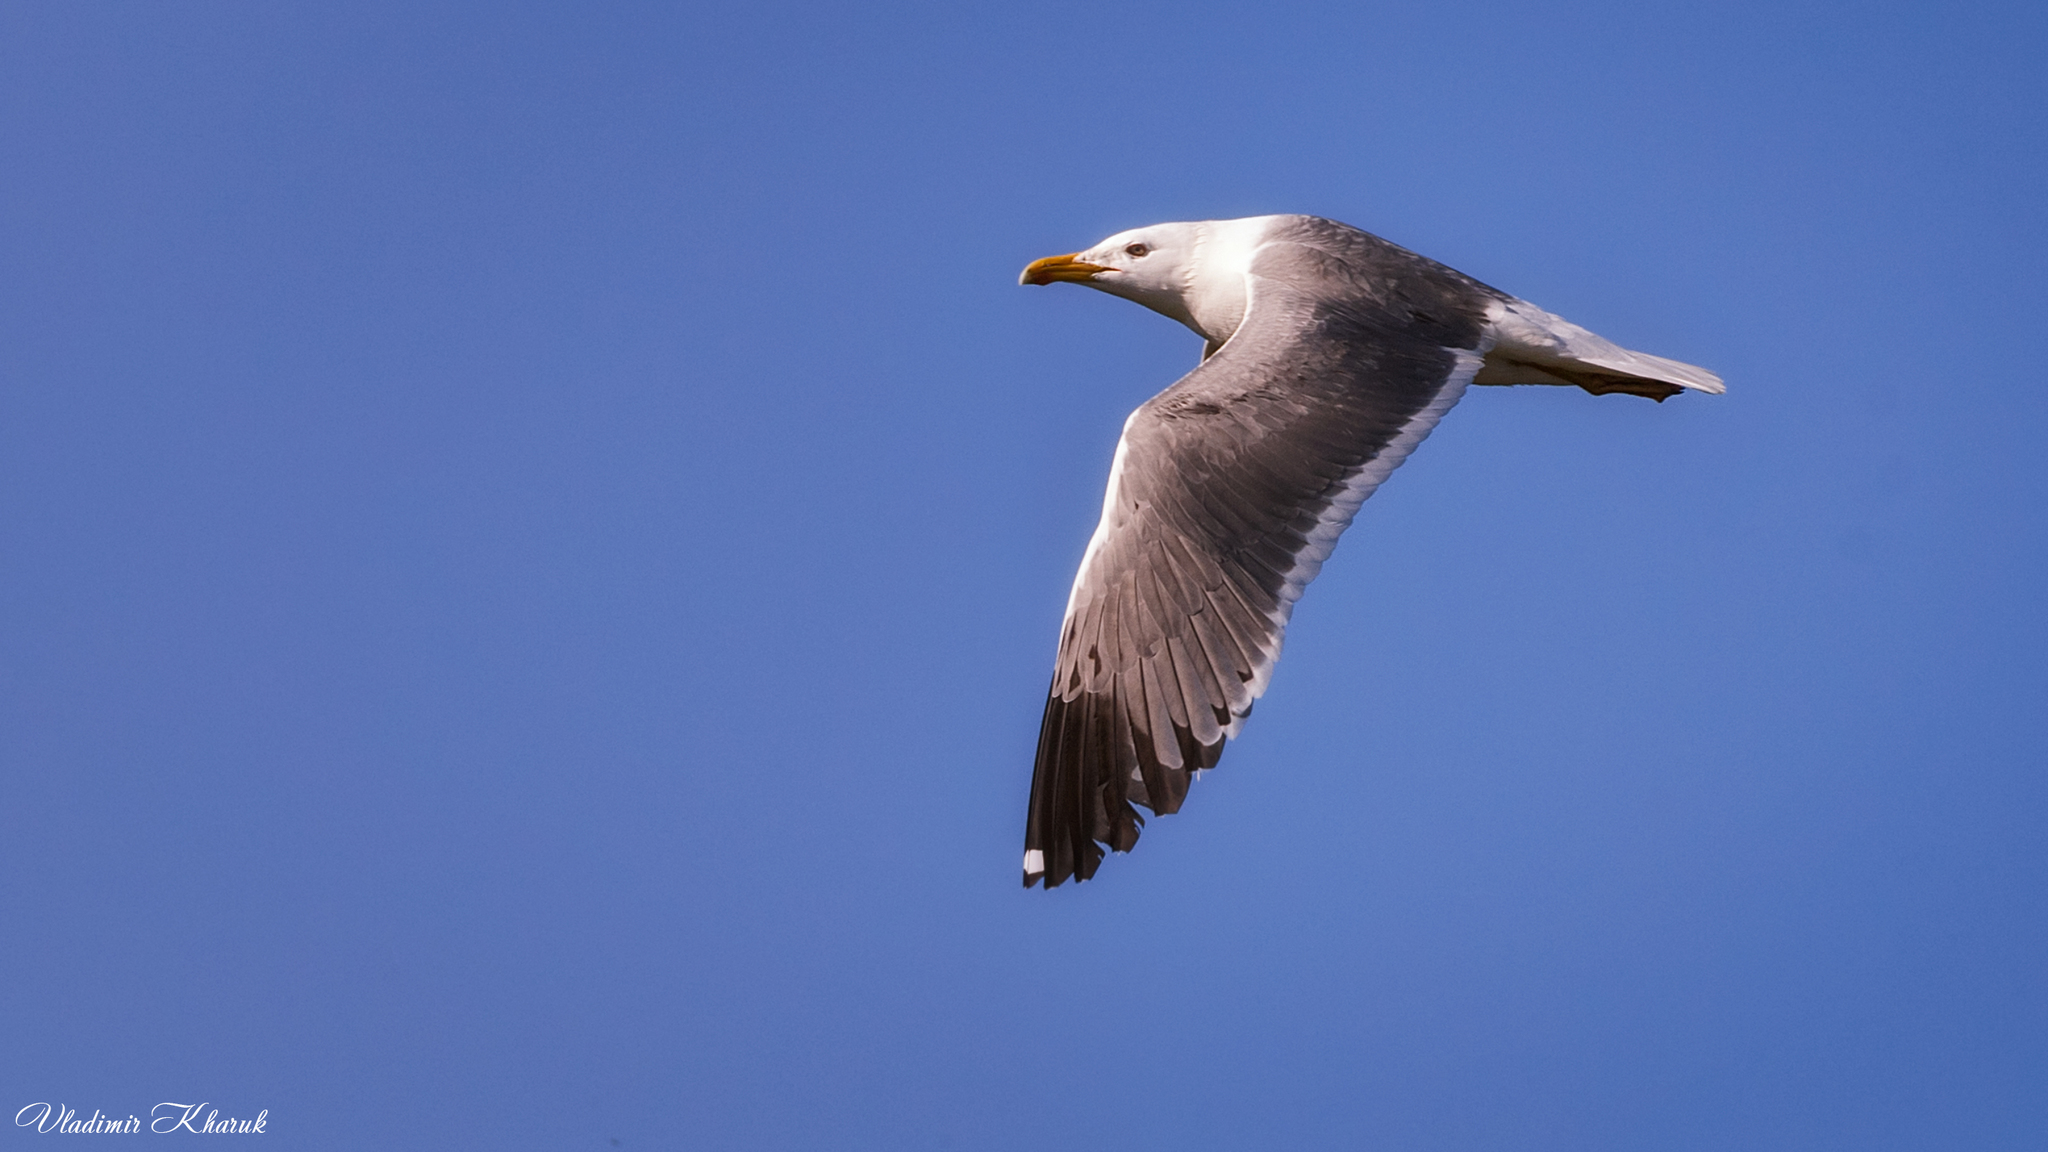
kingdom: Animalia
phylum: Chordata
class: Aves
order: Charadriiformes
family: Laridae
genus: Larus
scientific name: Larus fuscus
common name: Lesser black-backed gull
